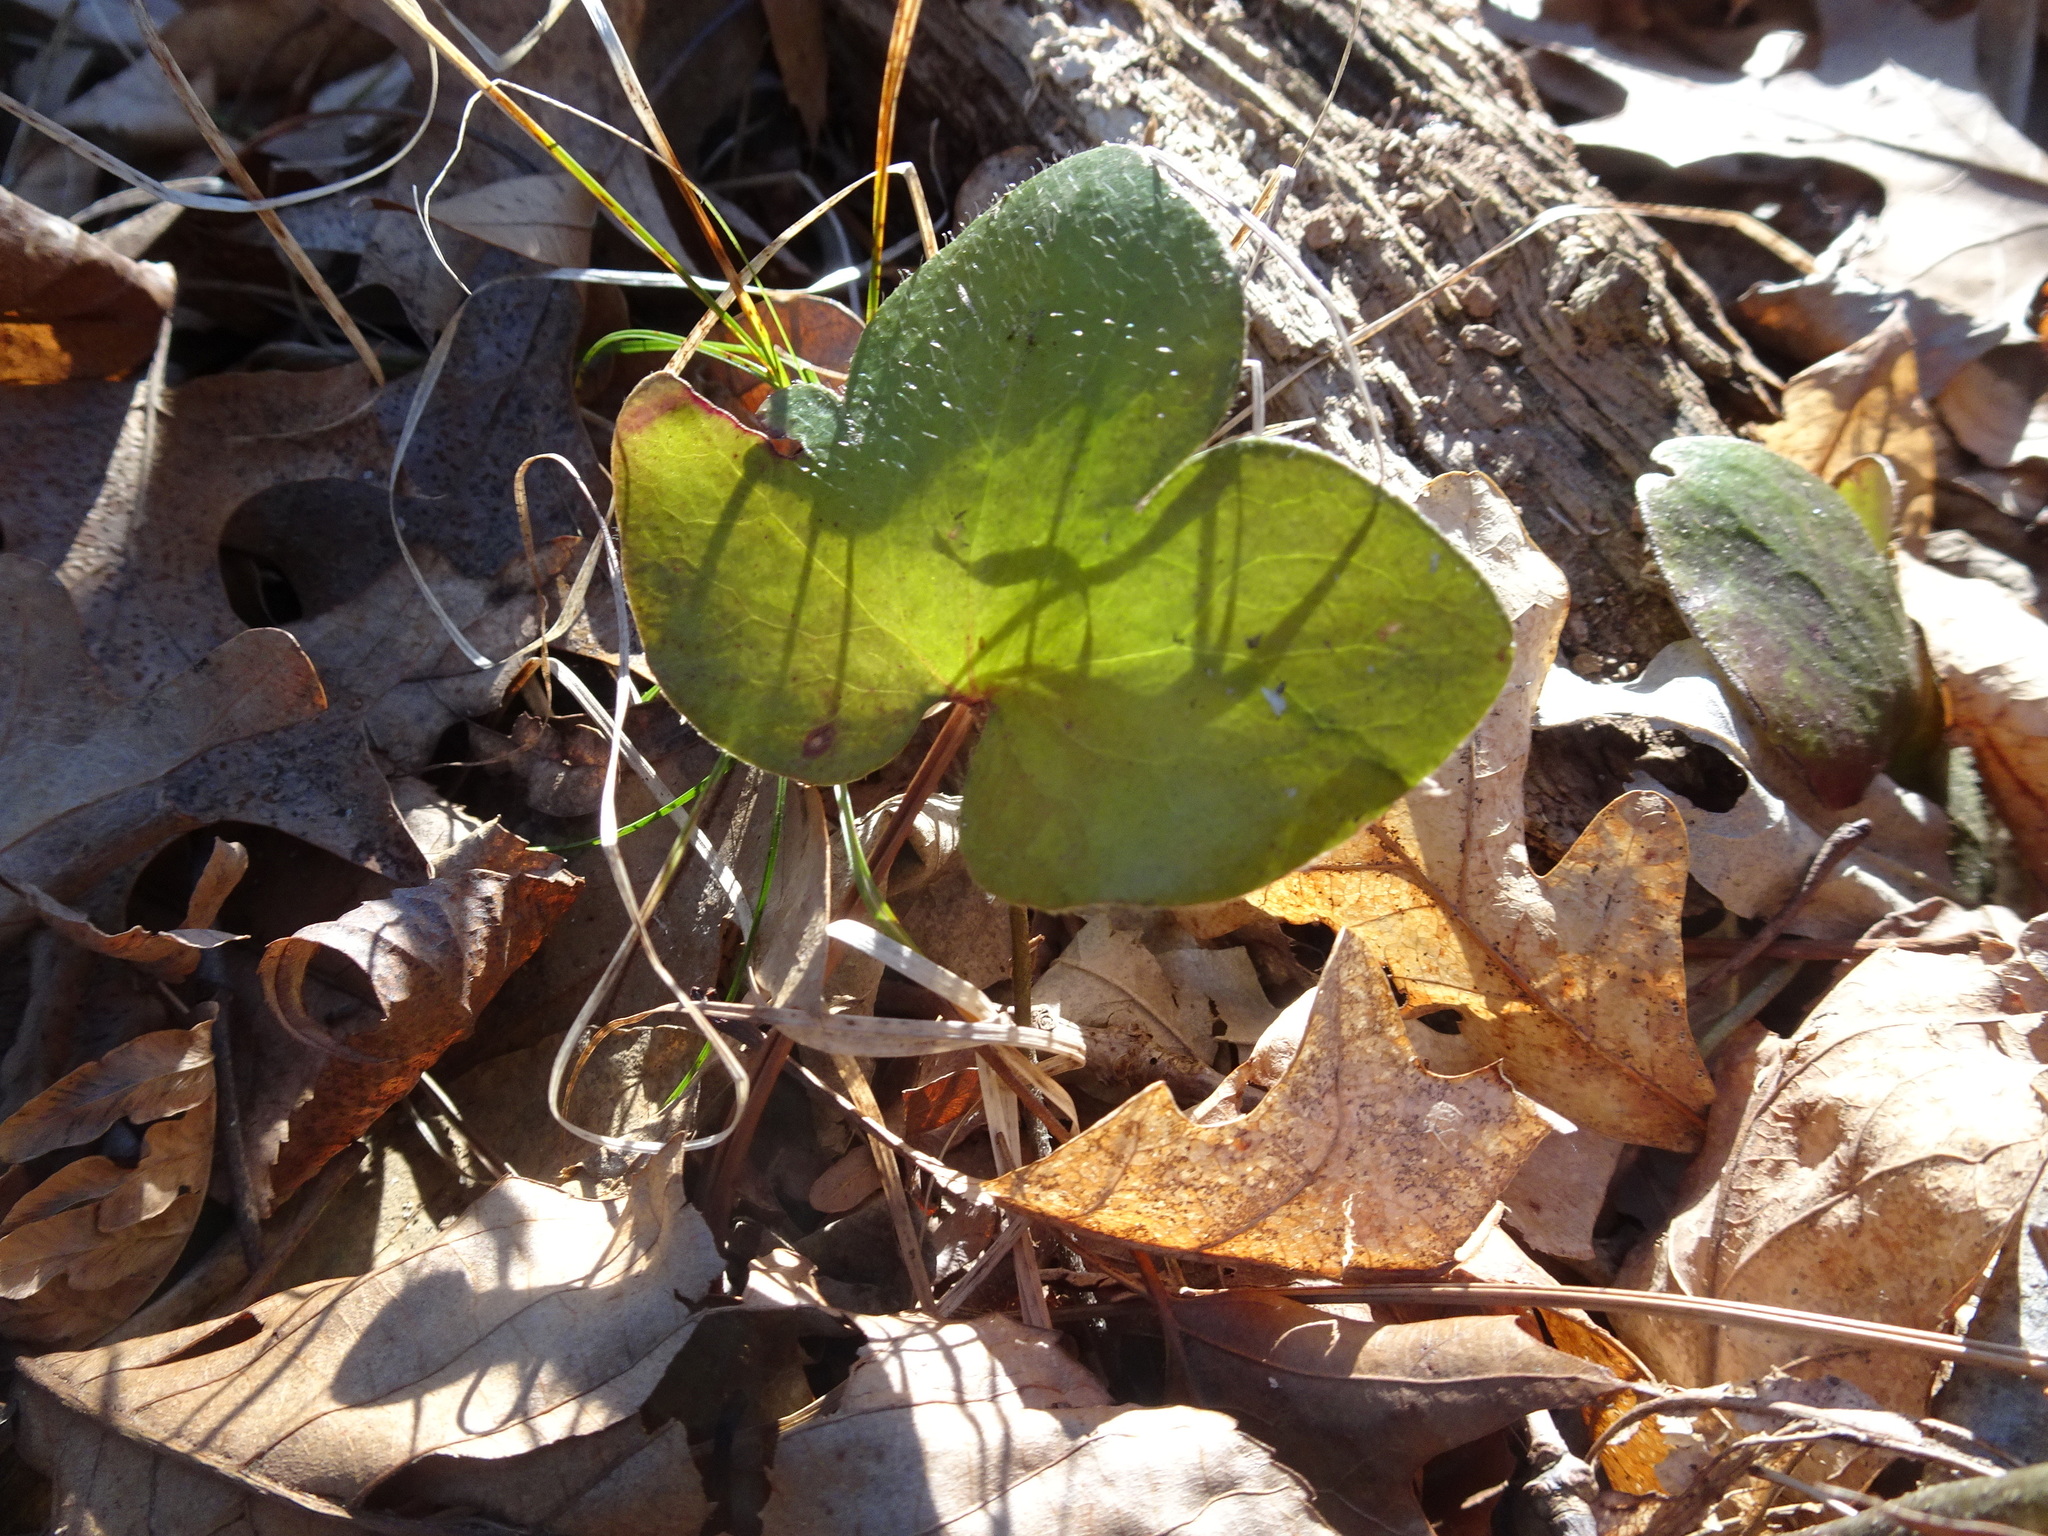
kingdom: Plantae
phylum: Tracheophyta
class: Magnoliopsida
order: Ranunculales
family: Ranunculaceae
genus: Hepatica
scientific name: Hepatica americana
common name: American hepatica
